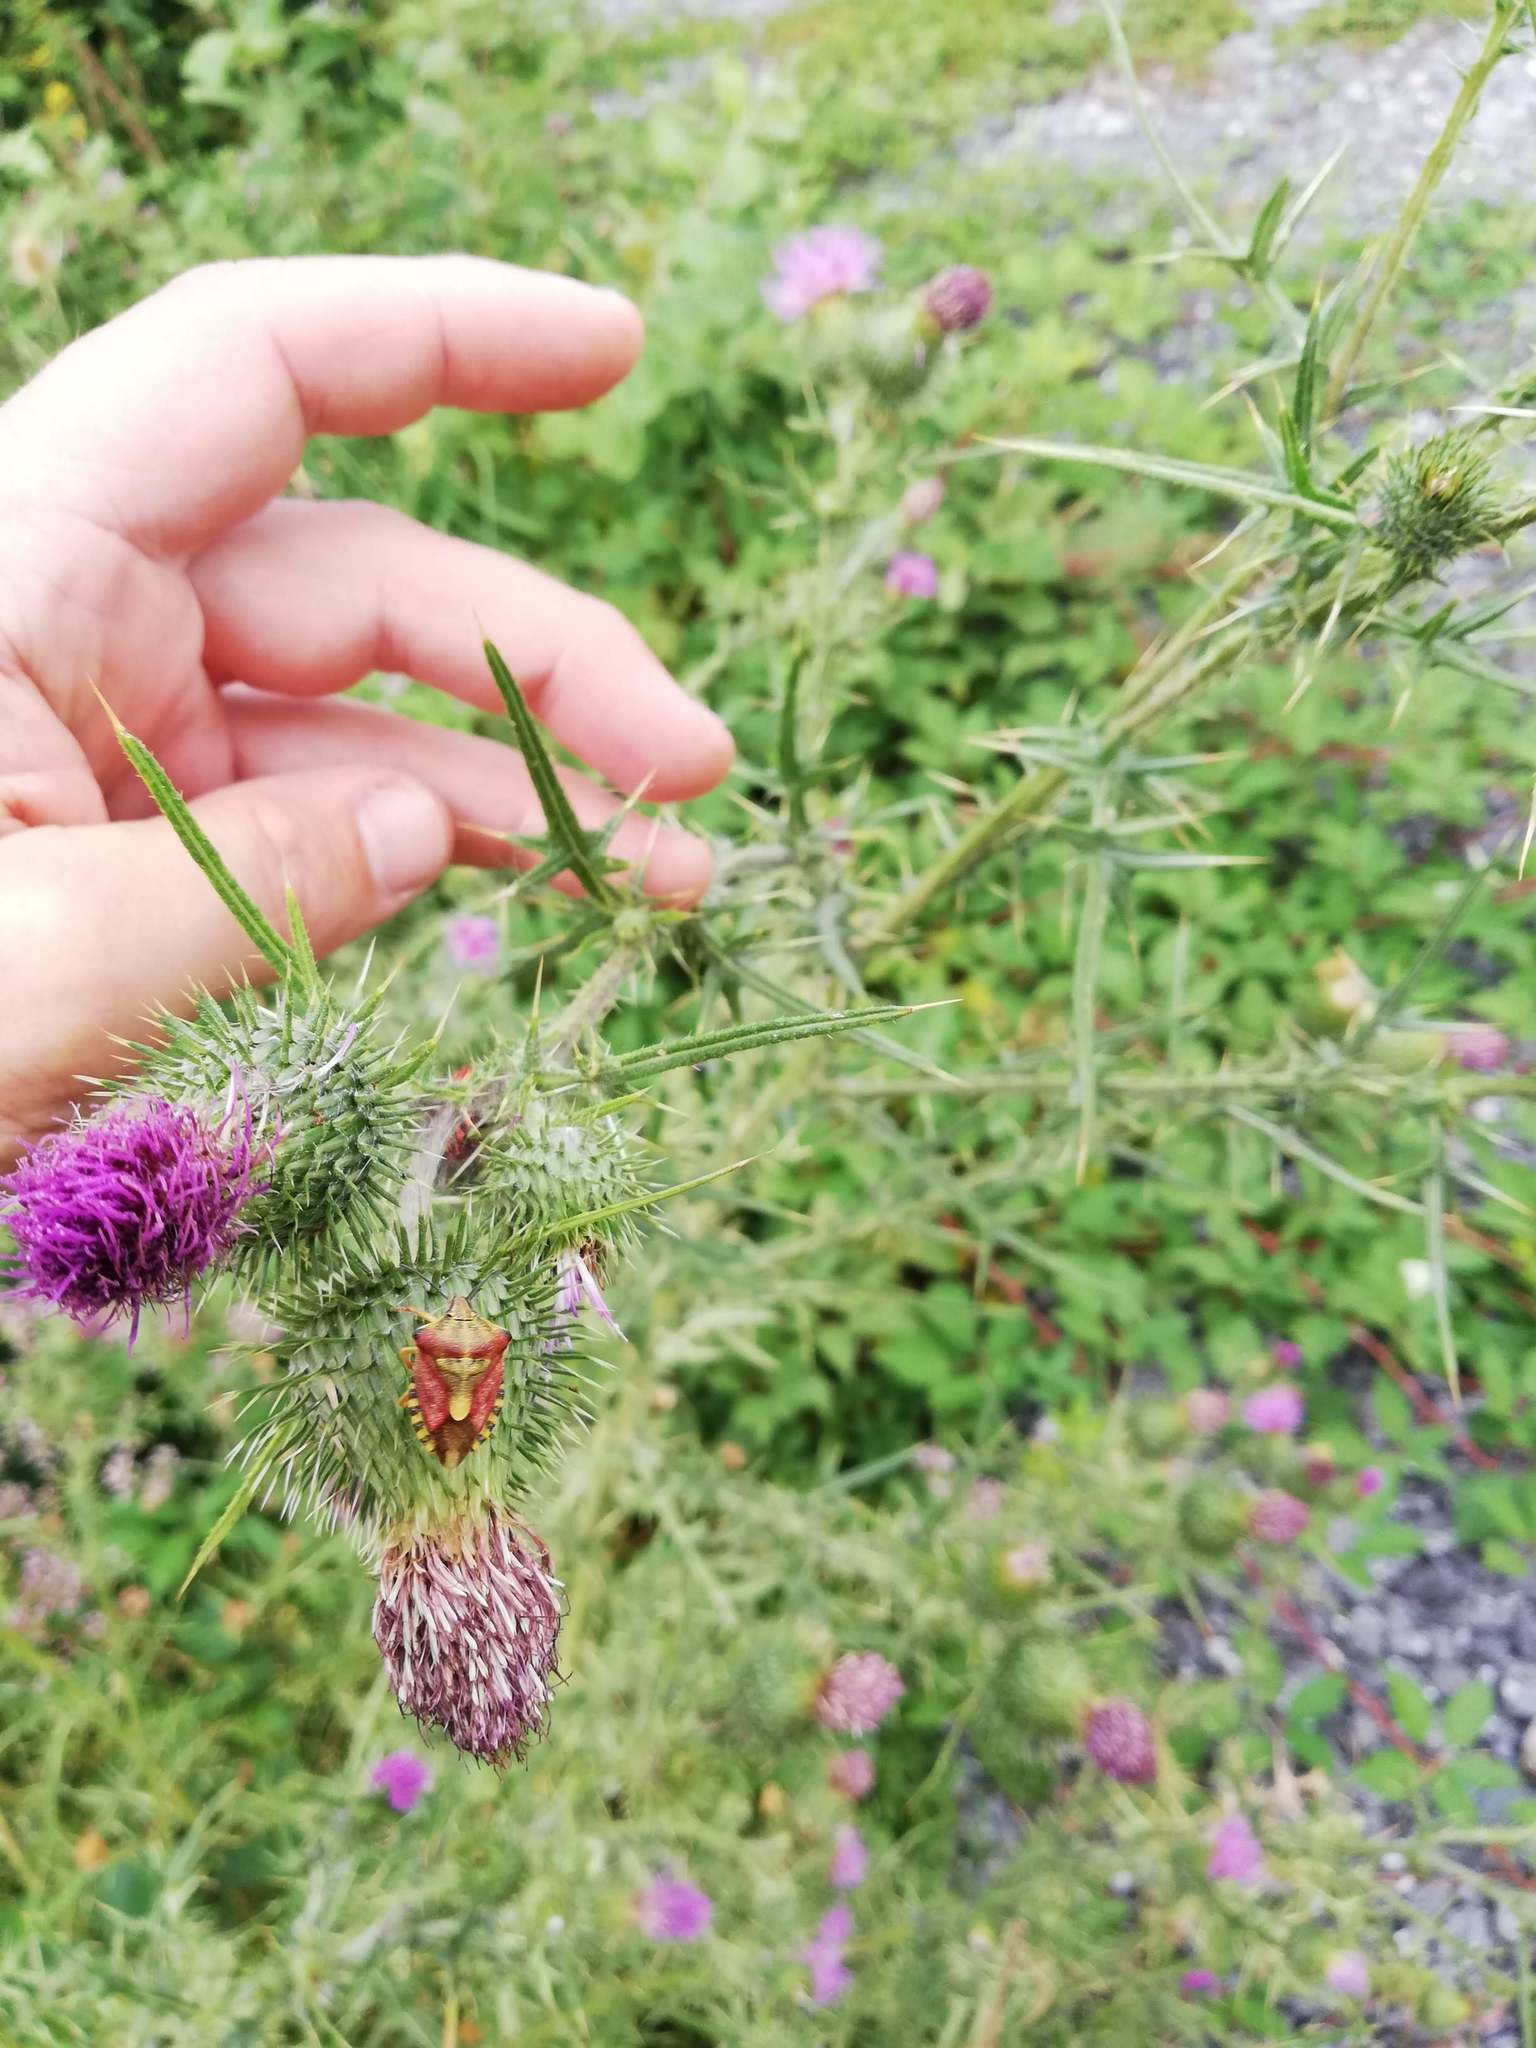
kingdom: Animalia
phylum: Arthropoda
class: Insecta
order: Hemiptera
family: Pentatomidae
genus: Carpocoris
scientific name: Carpocoris purpureipennis
